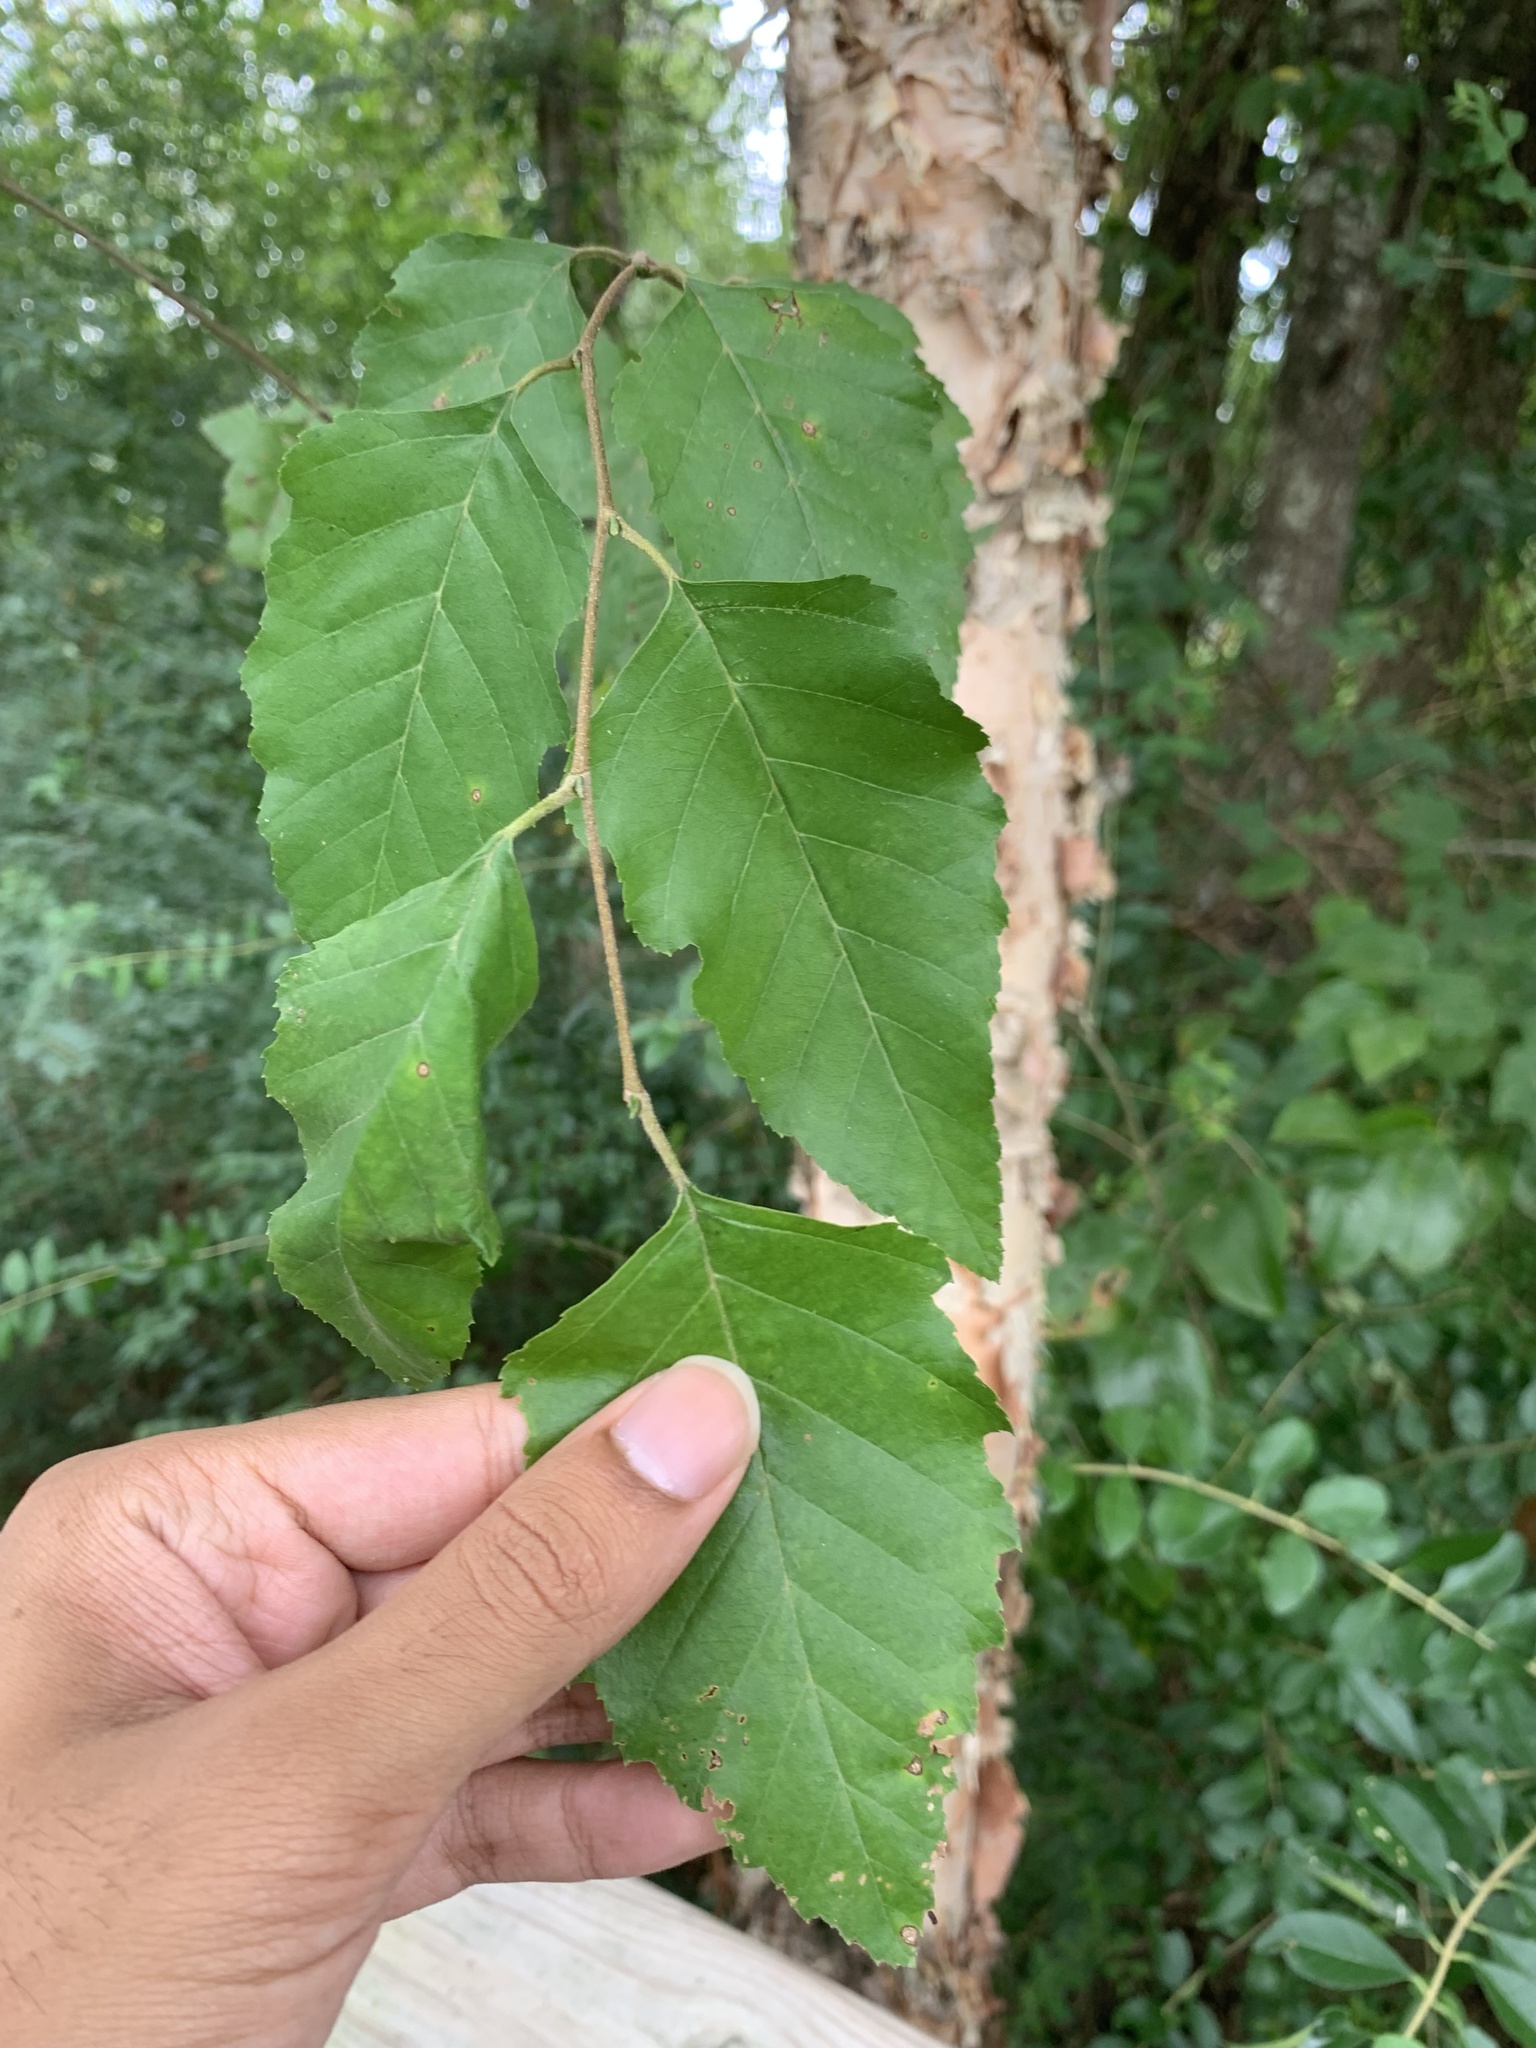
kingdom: Plantae
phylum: Tracheophyta
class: Magnoliopsida
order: Fagales
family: Betulaceae
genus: Betula
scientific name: Betula nigra
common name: Black birch
